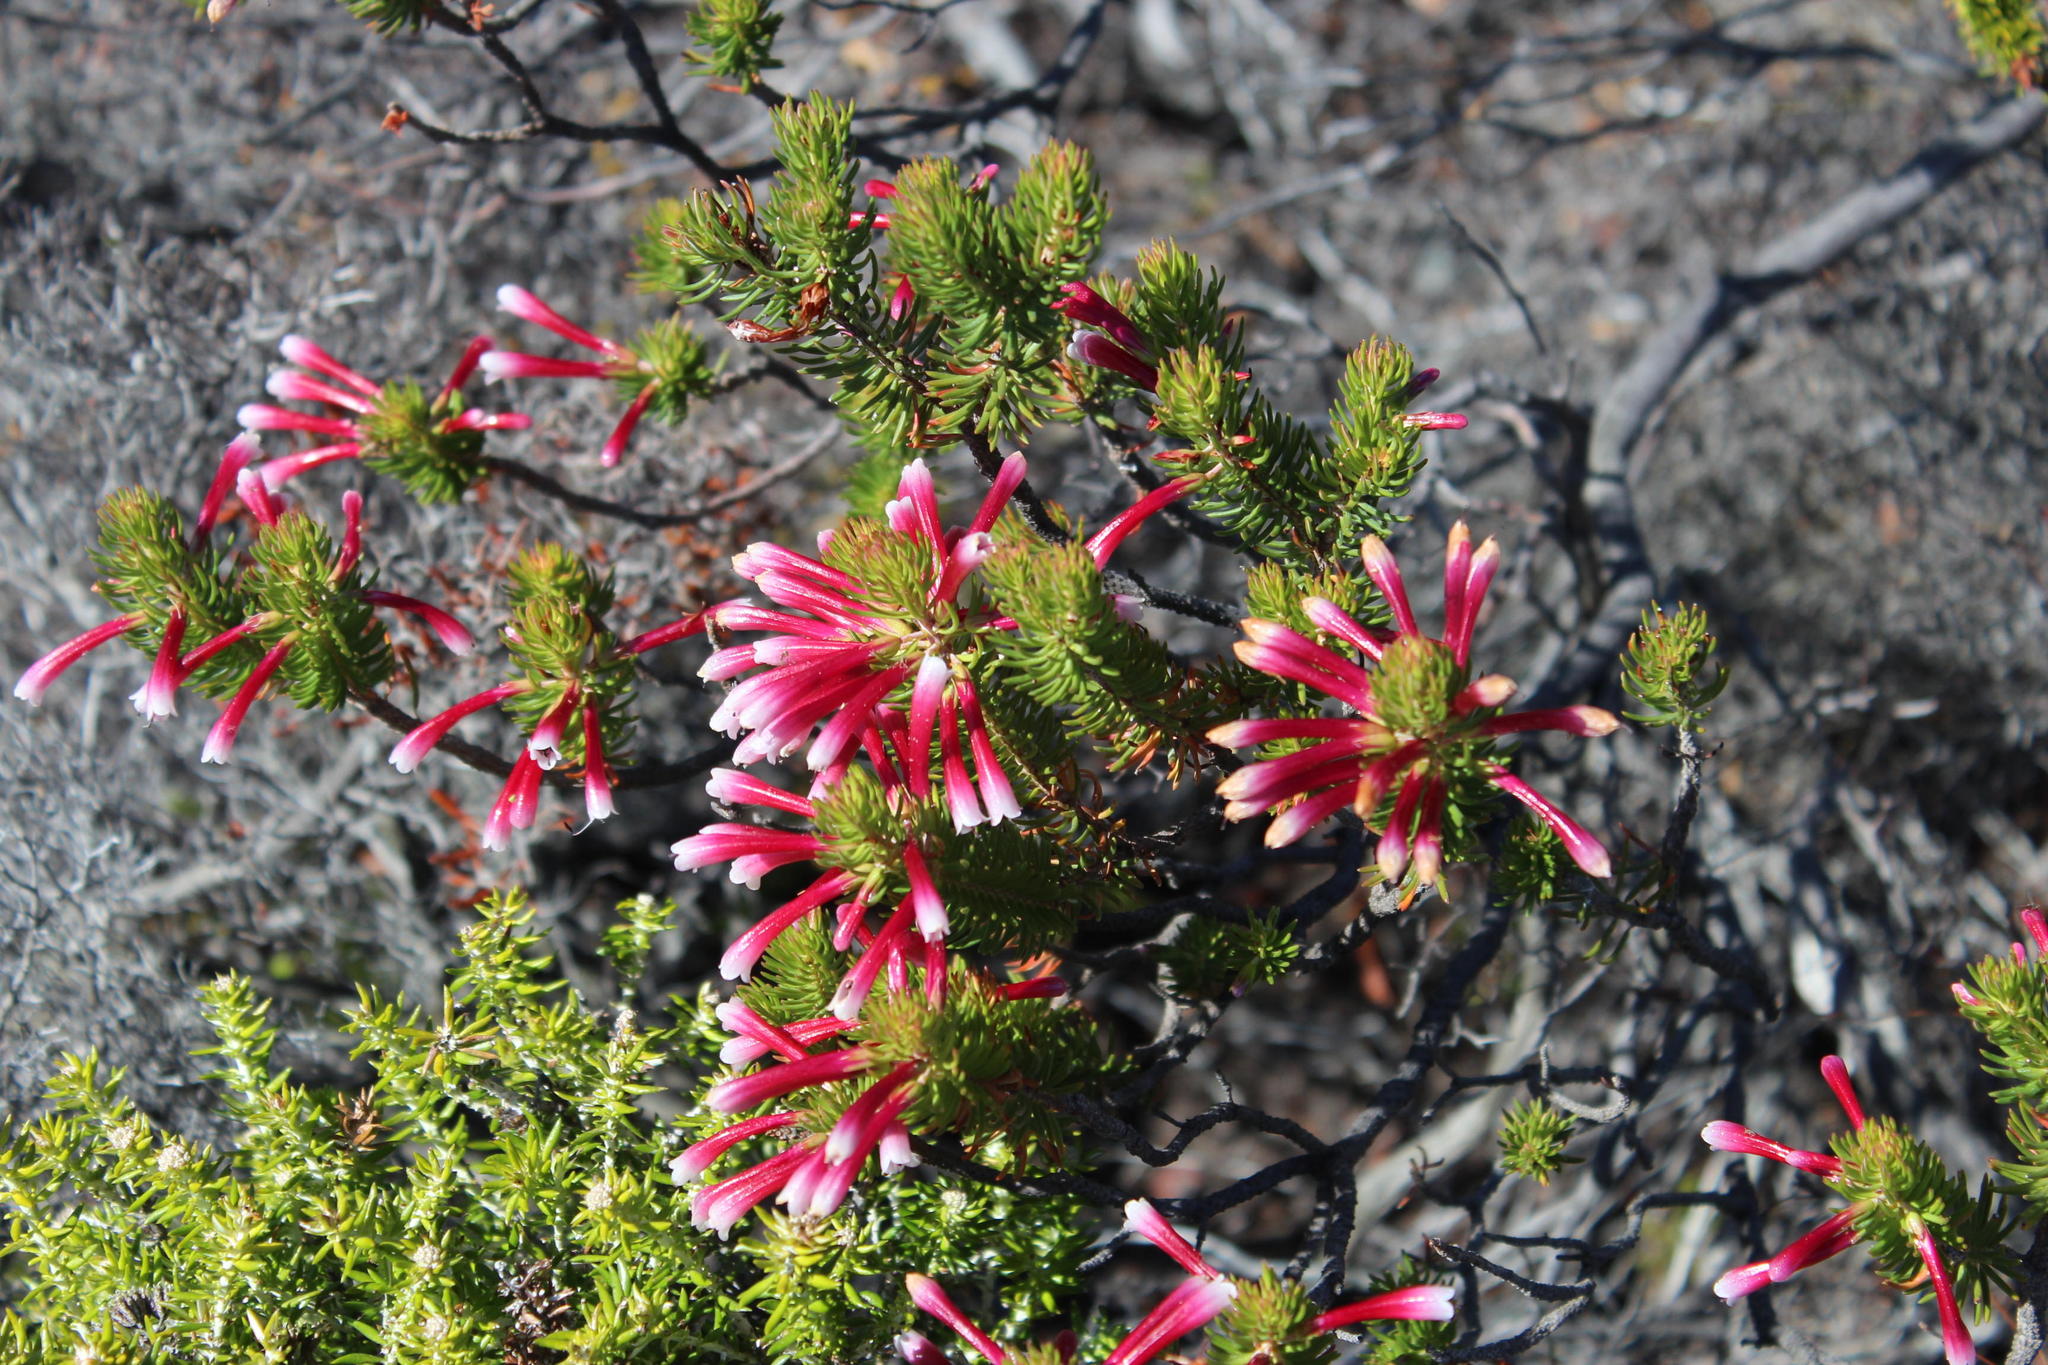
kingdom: Plantae
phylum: Tracheophyta
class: Magnoliopsida
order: Ericales
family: Ericaceae
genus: Erica
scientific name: Erica thomae
